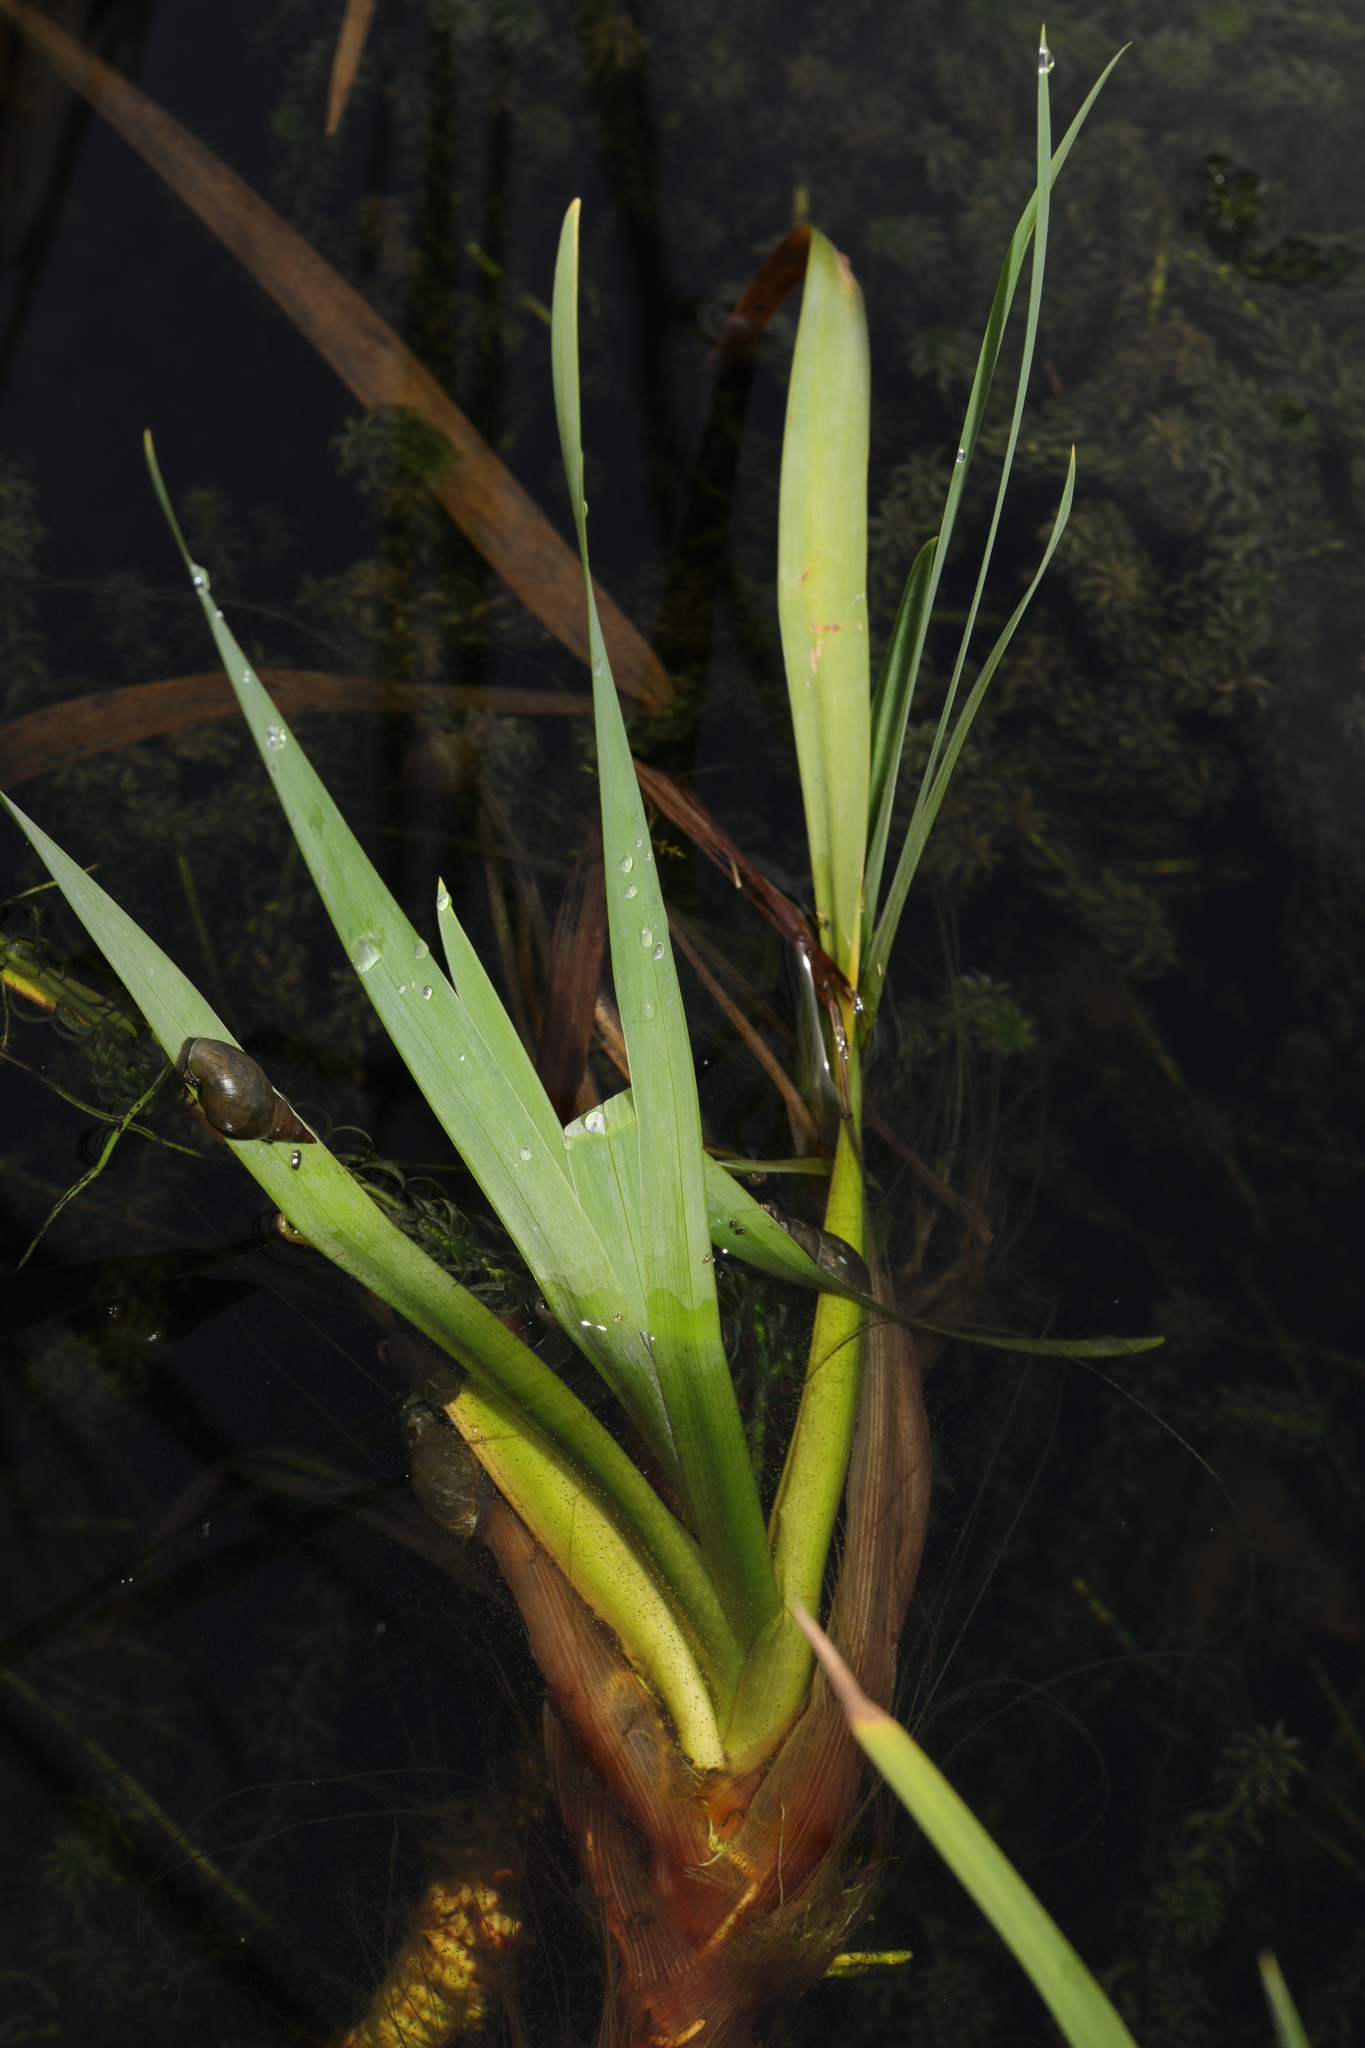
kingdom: Plantae
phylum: Tracheophyta
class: Liliopsida
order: Asparagales
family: Iridaceae
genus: Iris
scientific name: Iris pseudacorus
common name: Yellow flag
